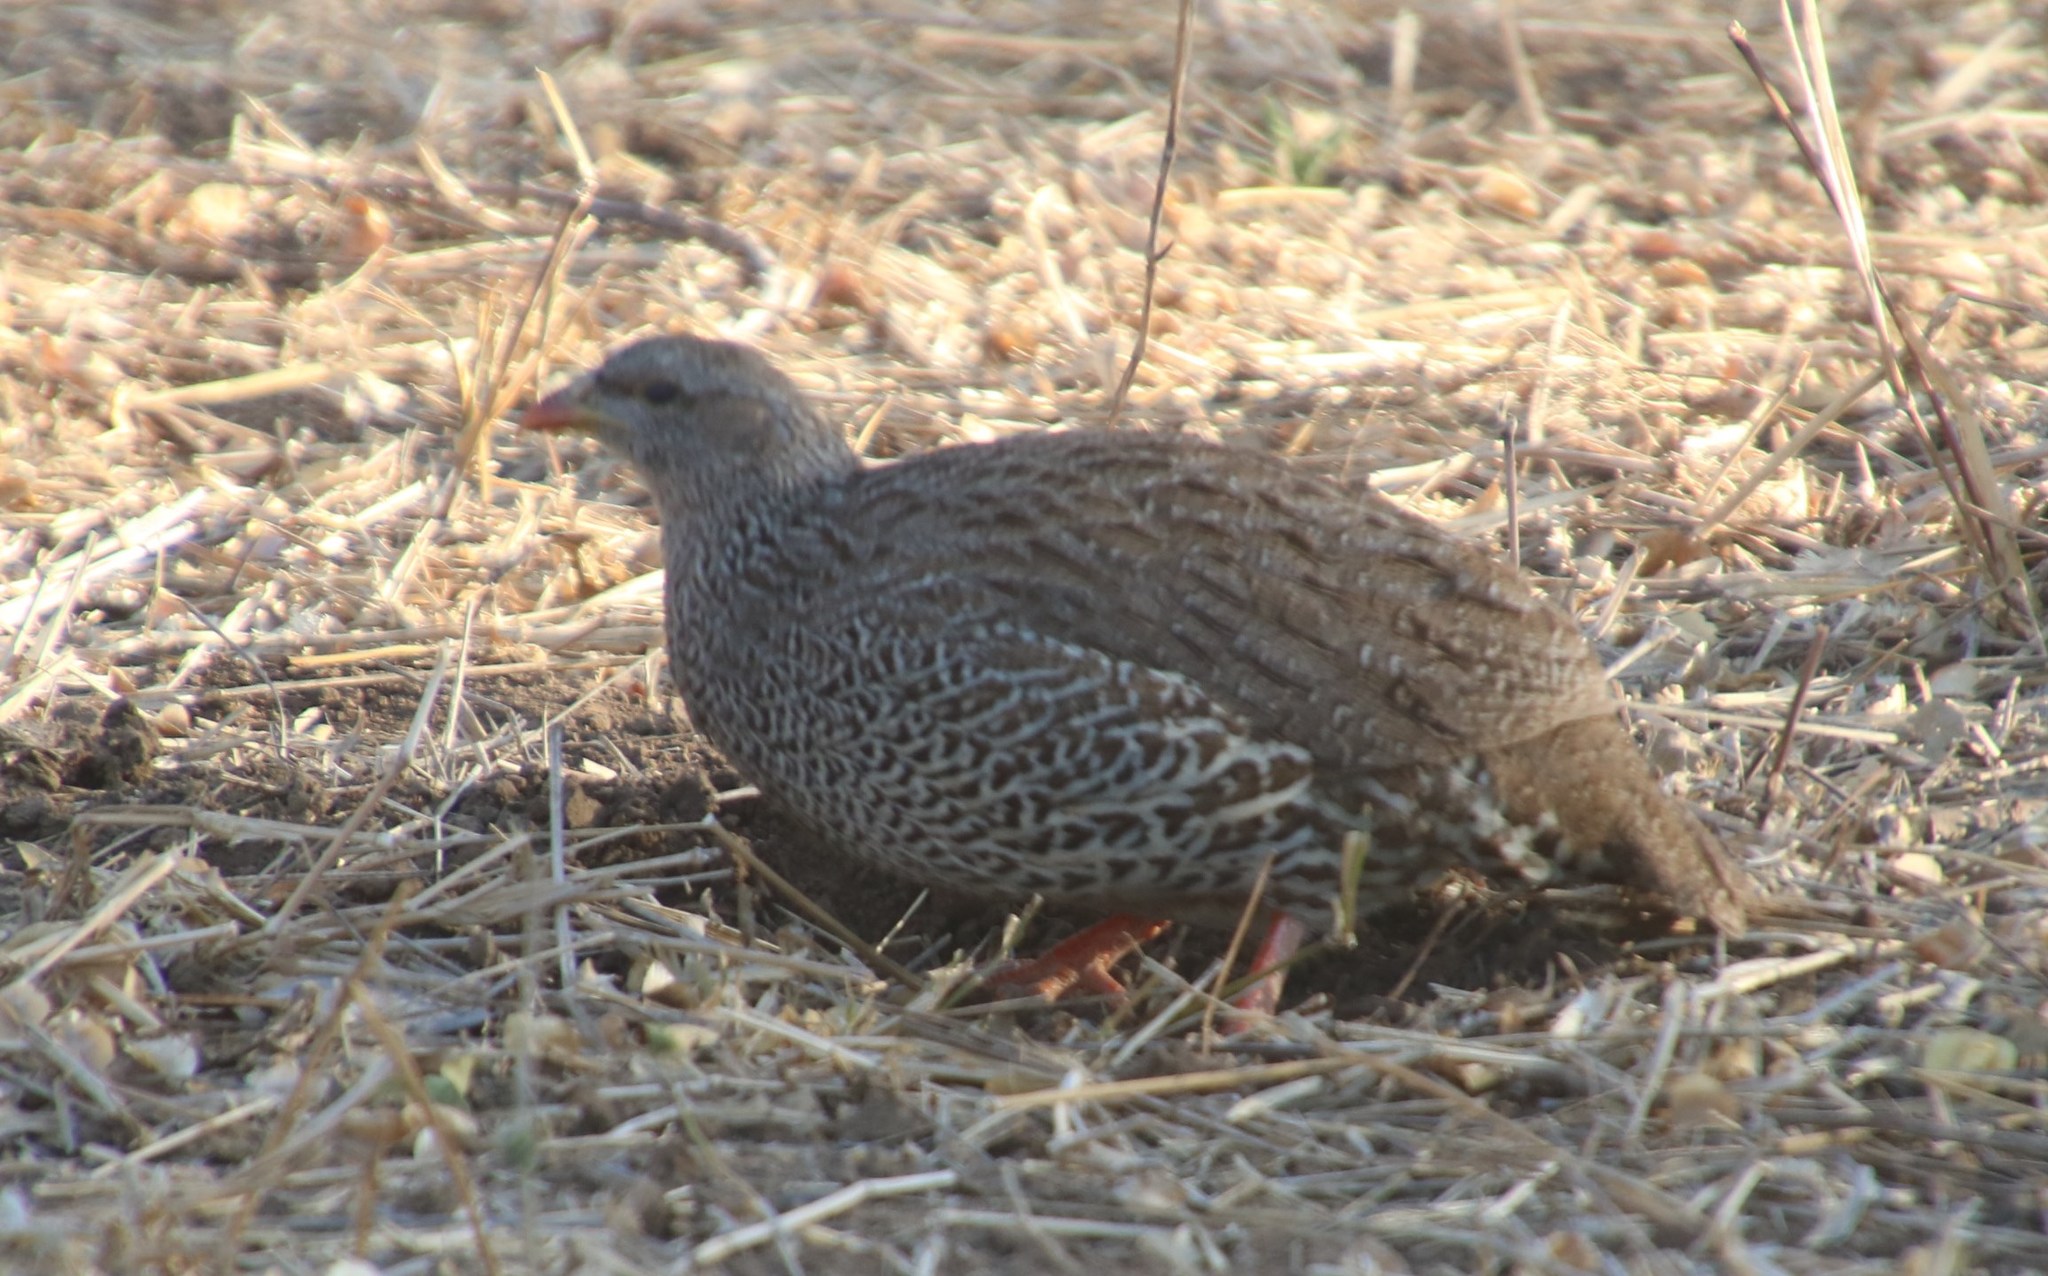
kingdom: Animalia
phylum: Chordata
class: Aves
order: Galliformes
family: Phasianidae
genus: Pternistis
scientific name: Pternistis natalensis
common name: Natal spurfowl
